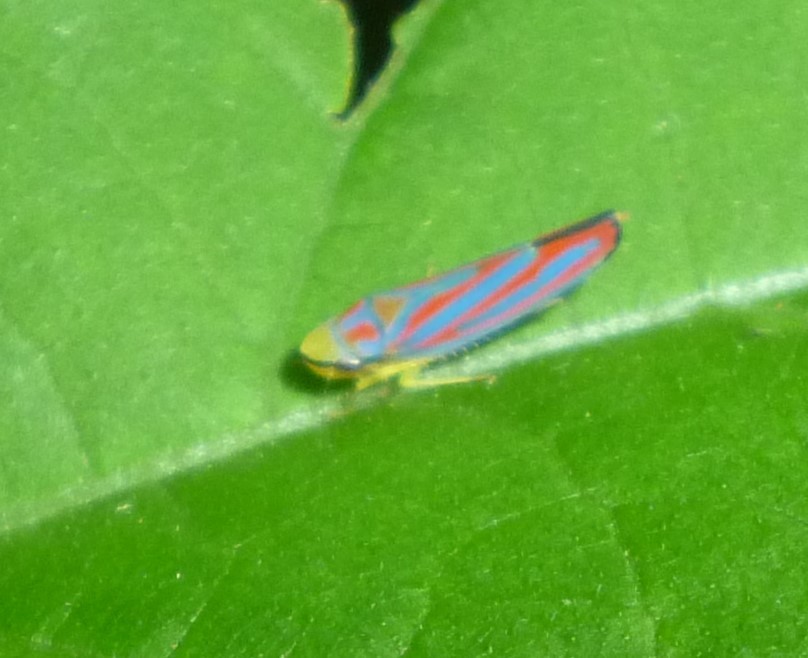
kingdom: Animalia
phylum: Arthropoda
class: Insecta
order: Hemiptera
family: Cicadellidae
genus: Graphocephala
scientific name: Graphocephala coccinea
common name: Candy-striped leafhopper
